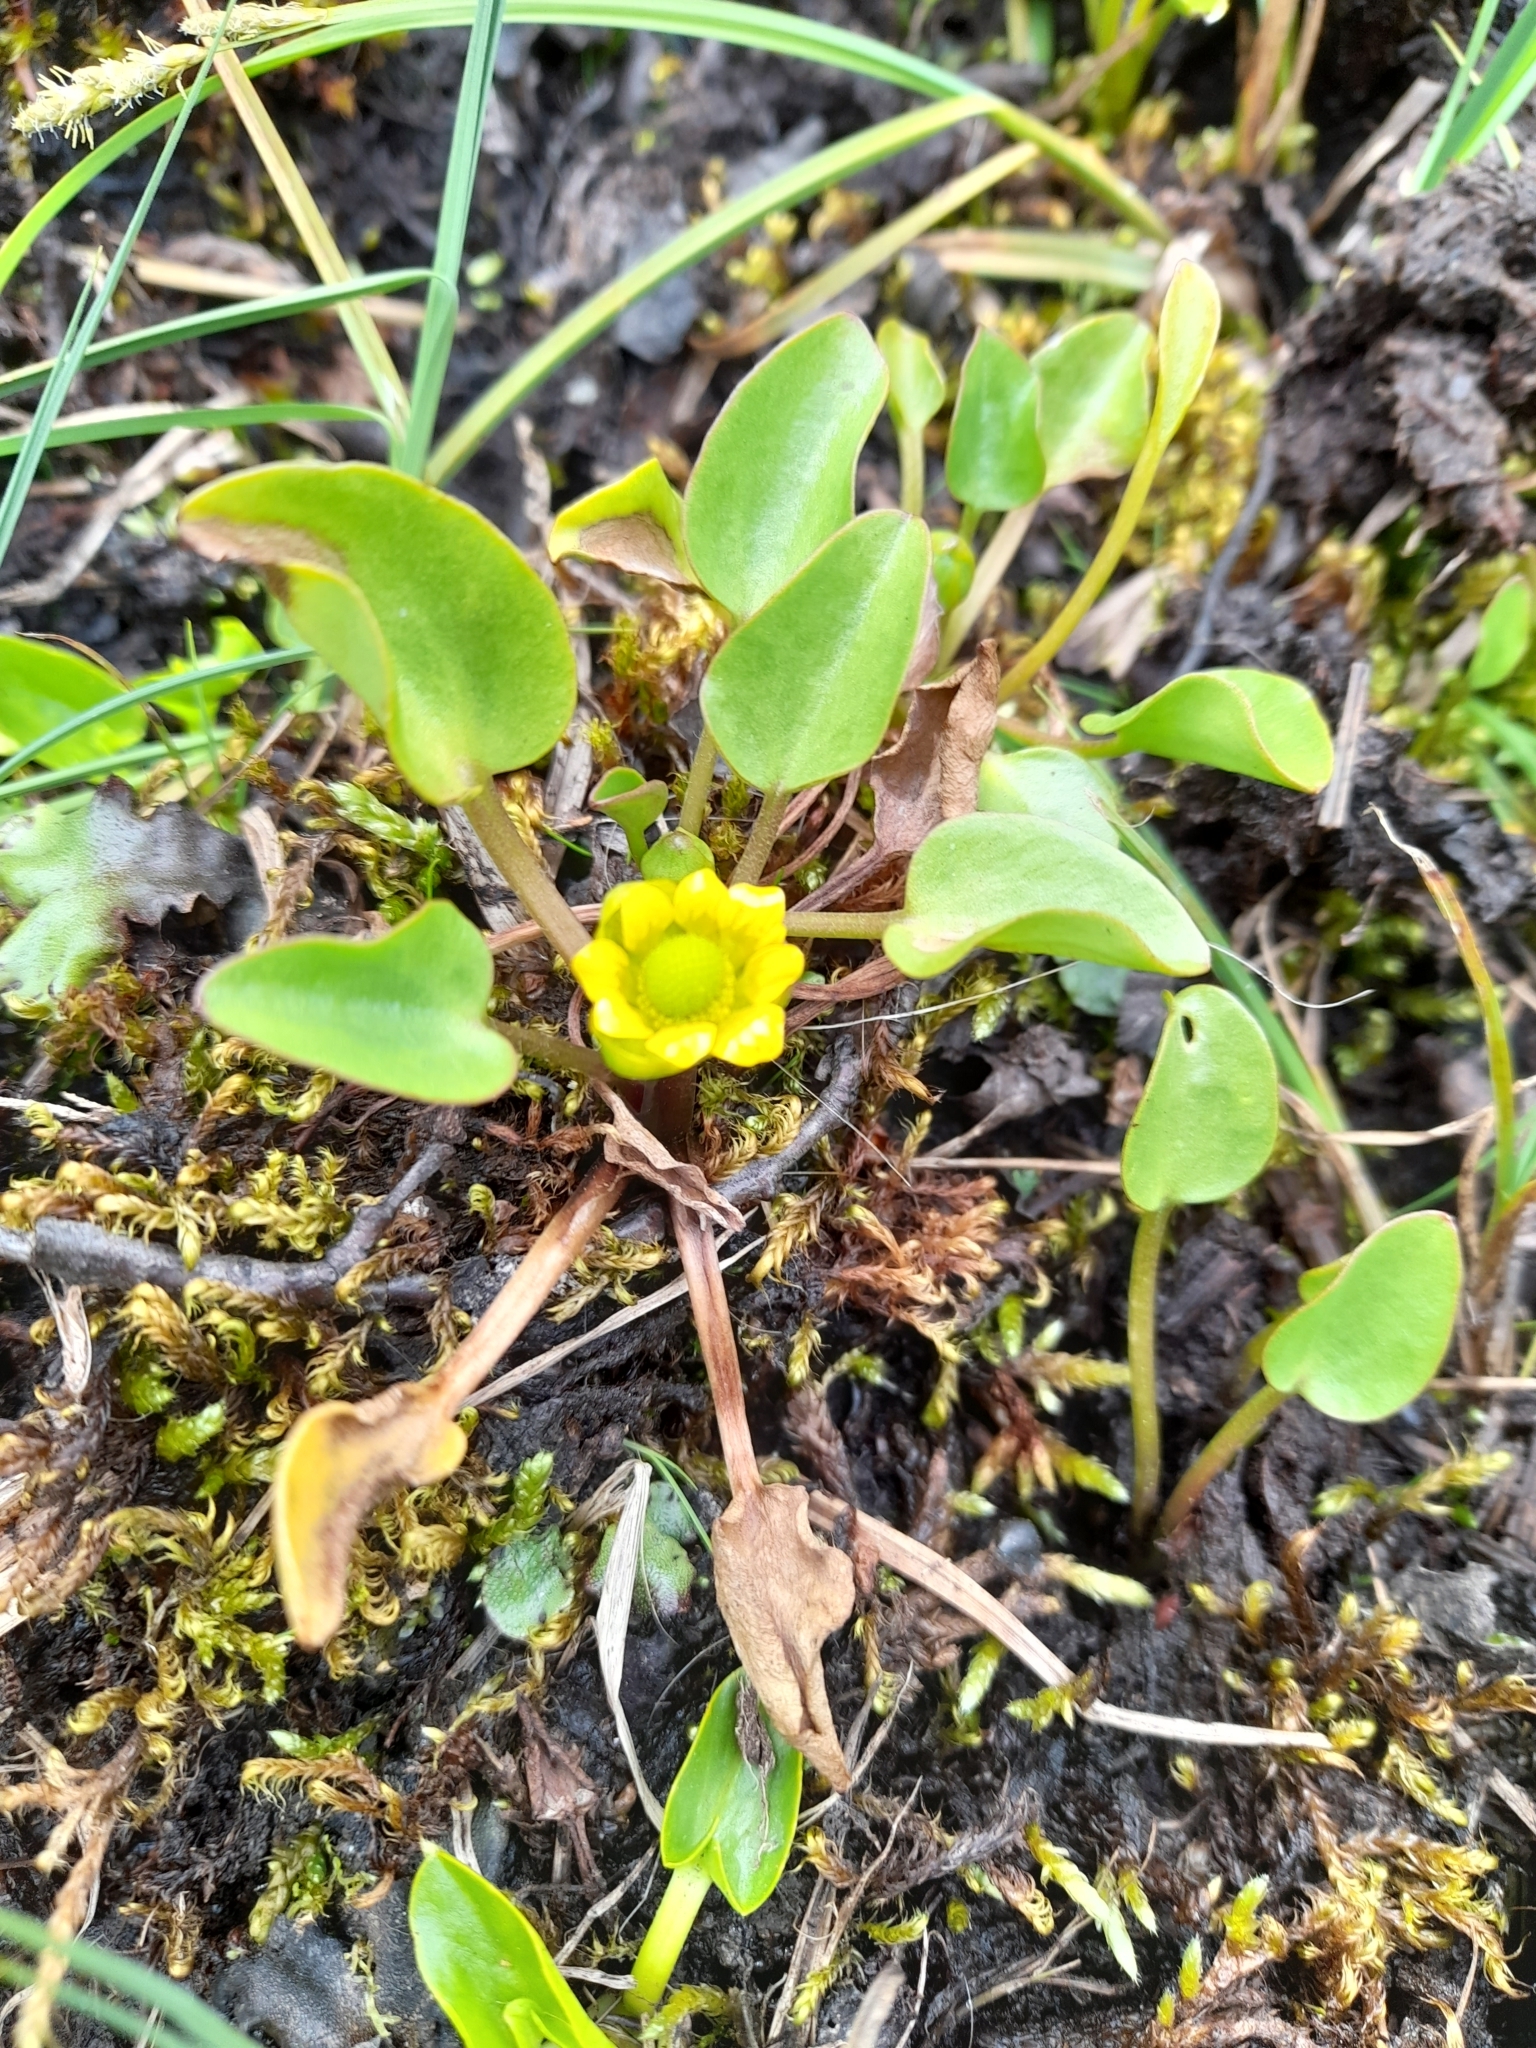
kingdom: Plantae
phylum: Tracheophyta
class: Magnoliopsida
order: Ranunculales
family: Ranunculaceae
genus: Halerpestes
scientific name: Halerpestes uniflora
